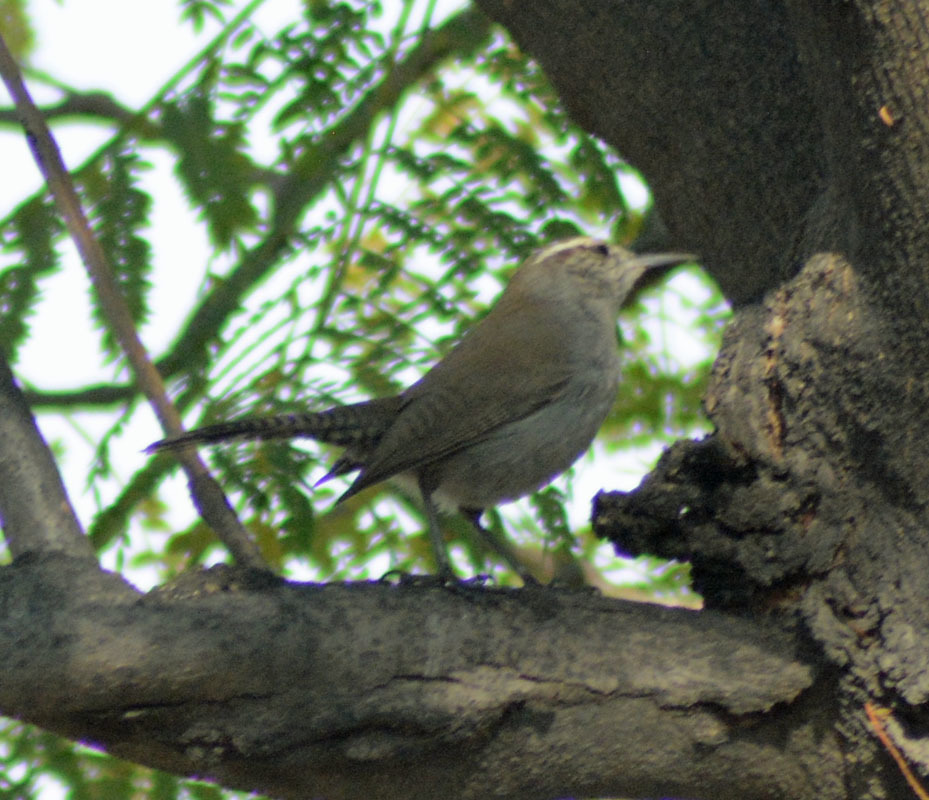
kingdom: Animalia
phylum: Chordata
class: Aves
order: Passeriformes
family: Troglodytidae
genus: Thryomanes
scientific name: Thryomanes bewickii
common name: Bewick's wren
